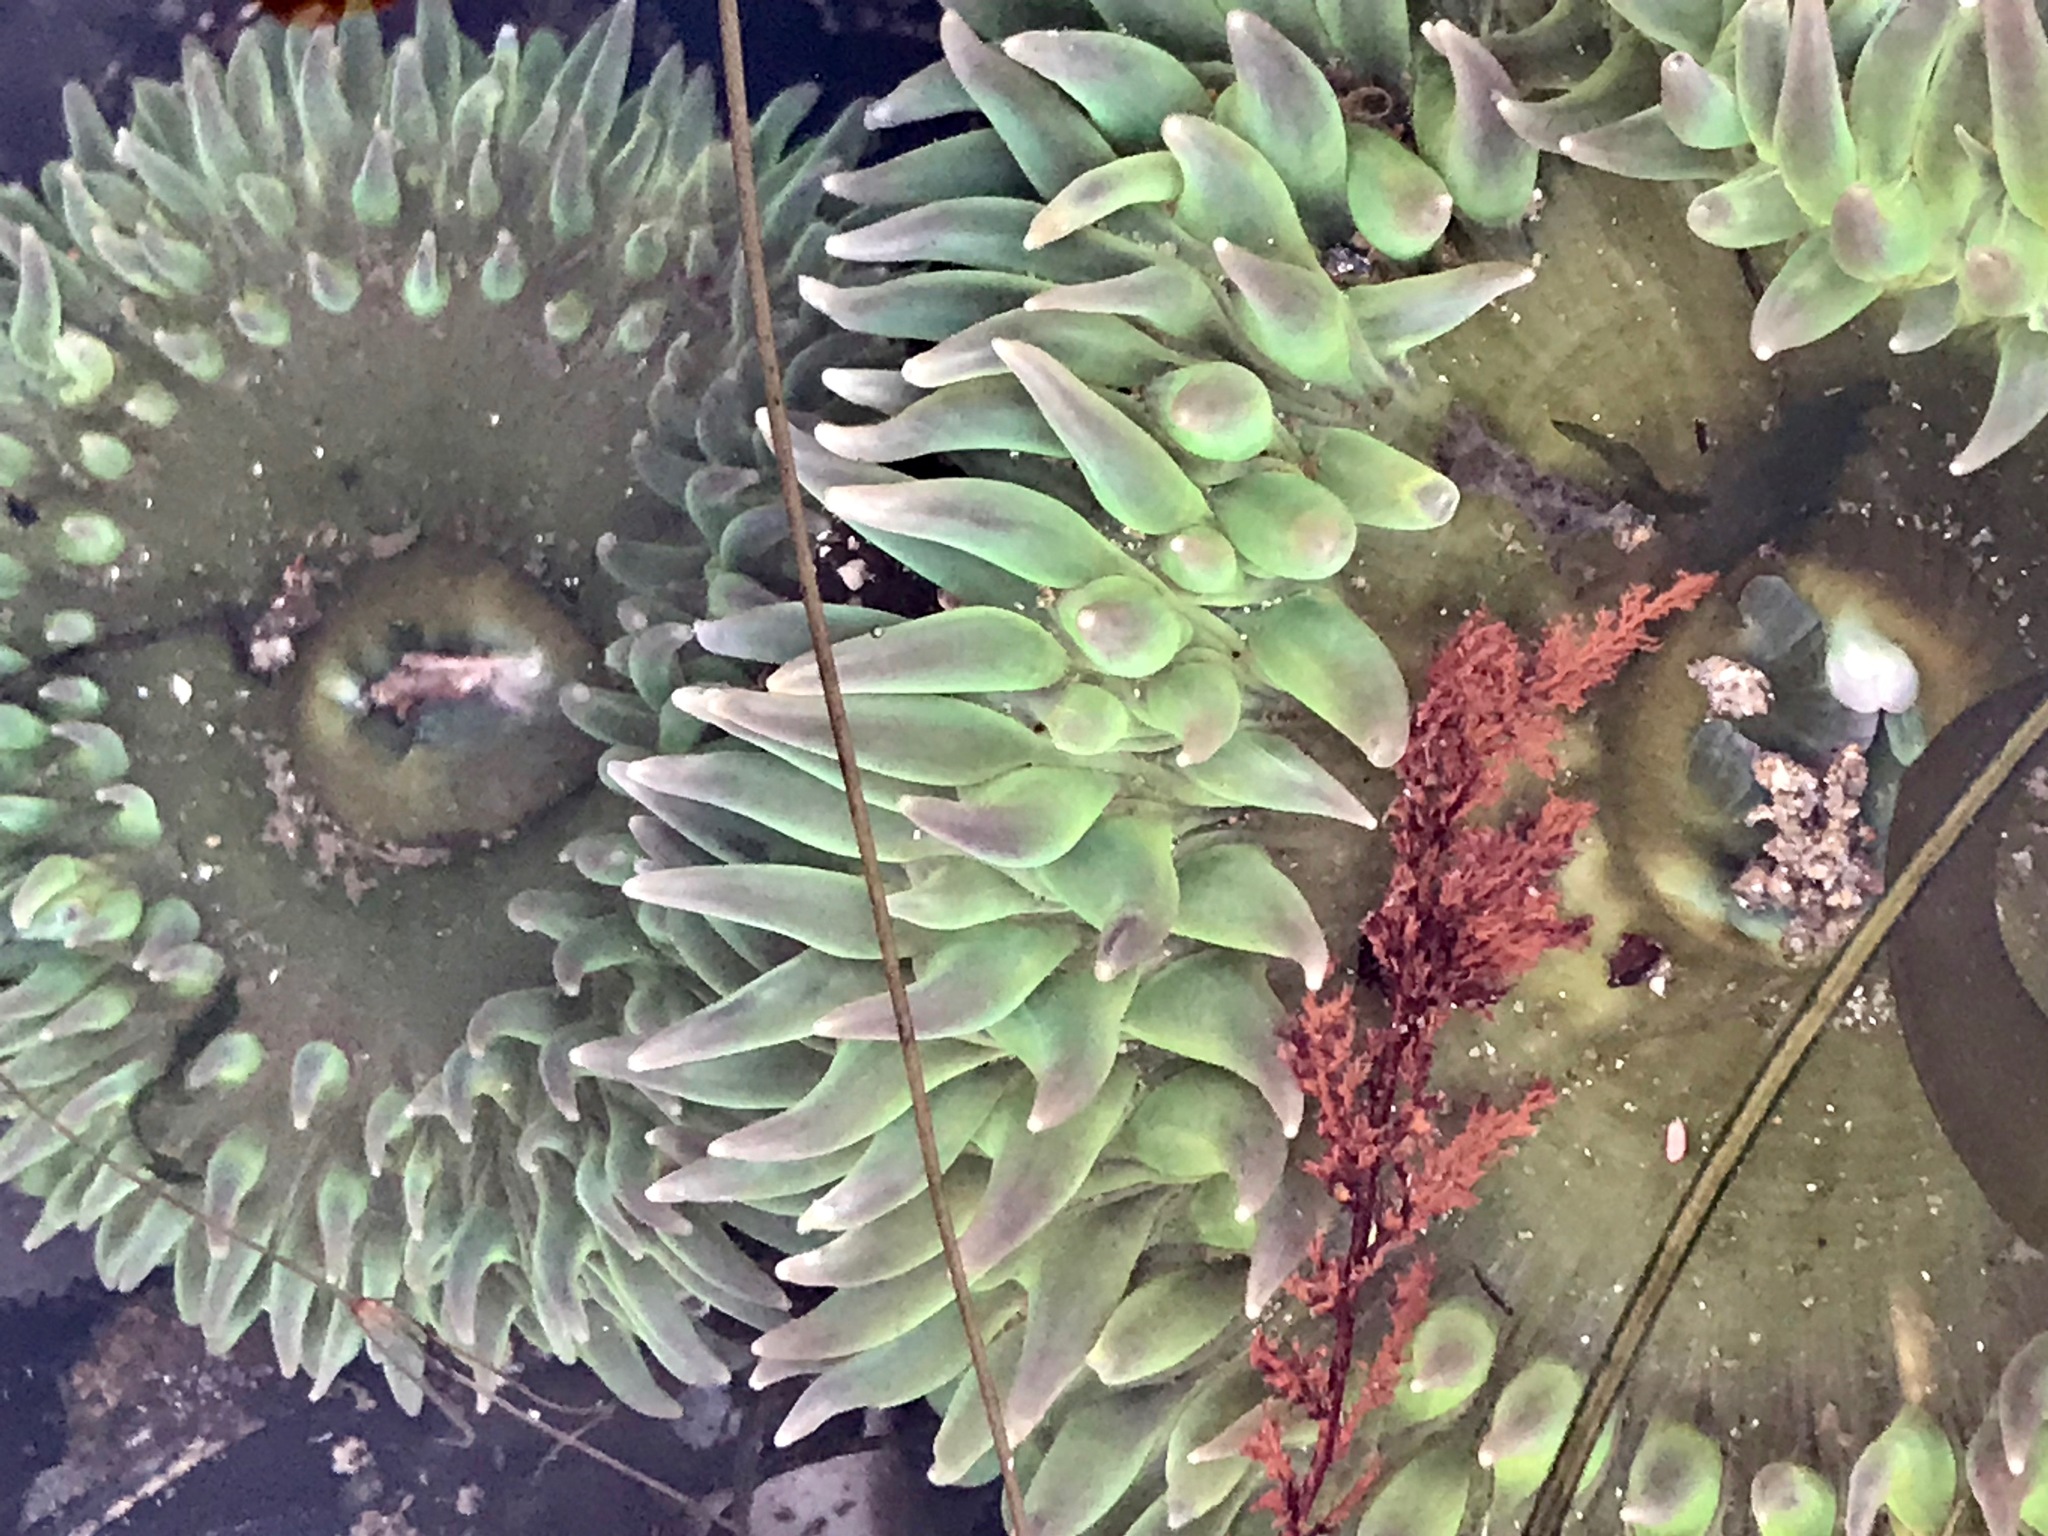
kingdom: Animalia
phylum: Cnidaria
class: Anthozoa
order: Actiniaria
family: Actiniidae
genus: Anthopleura
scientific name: Anthopleura xanthogrammica
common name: Giant green anemone
